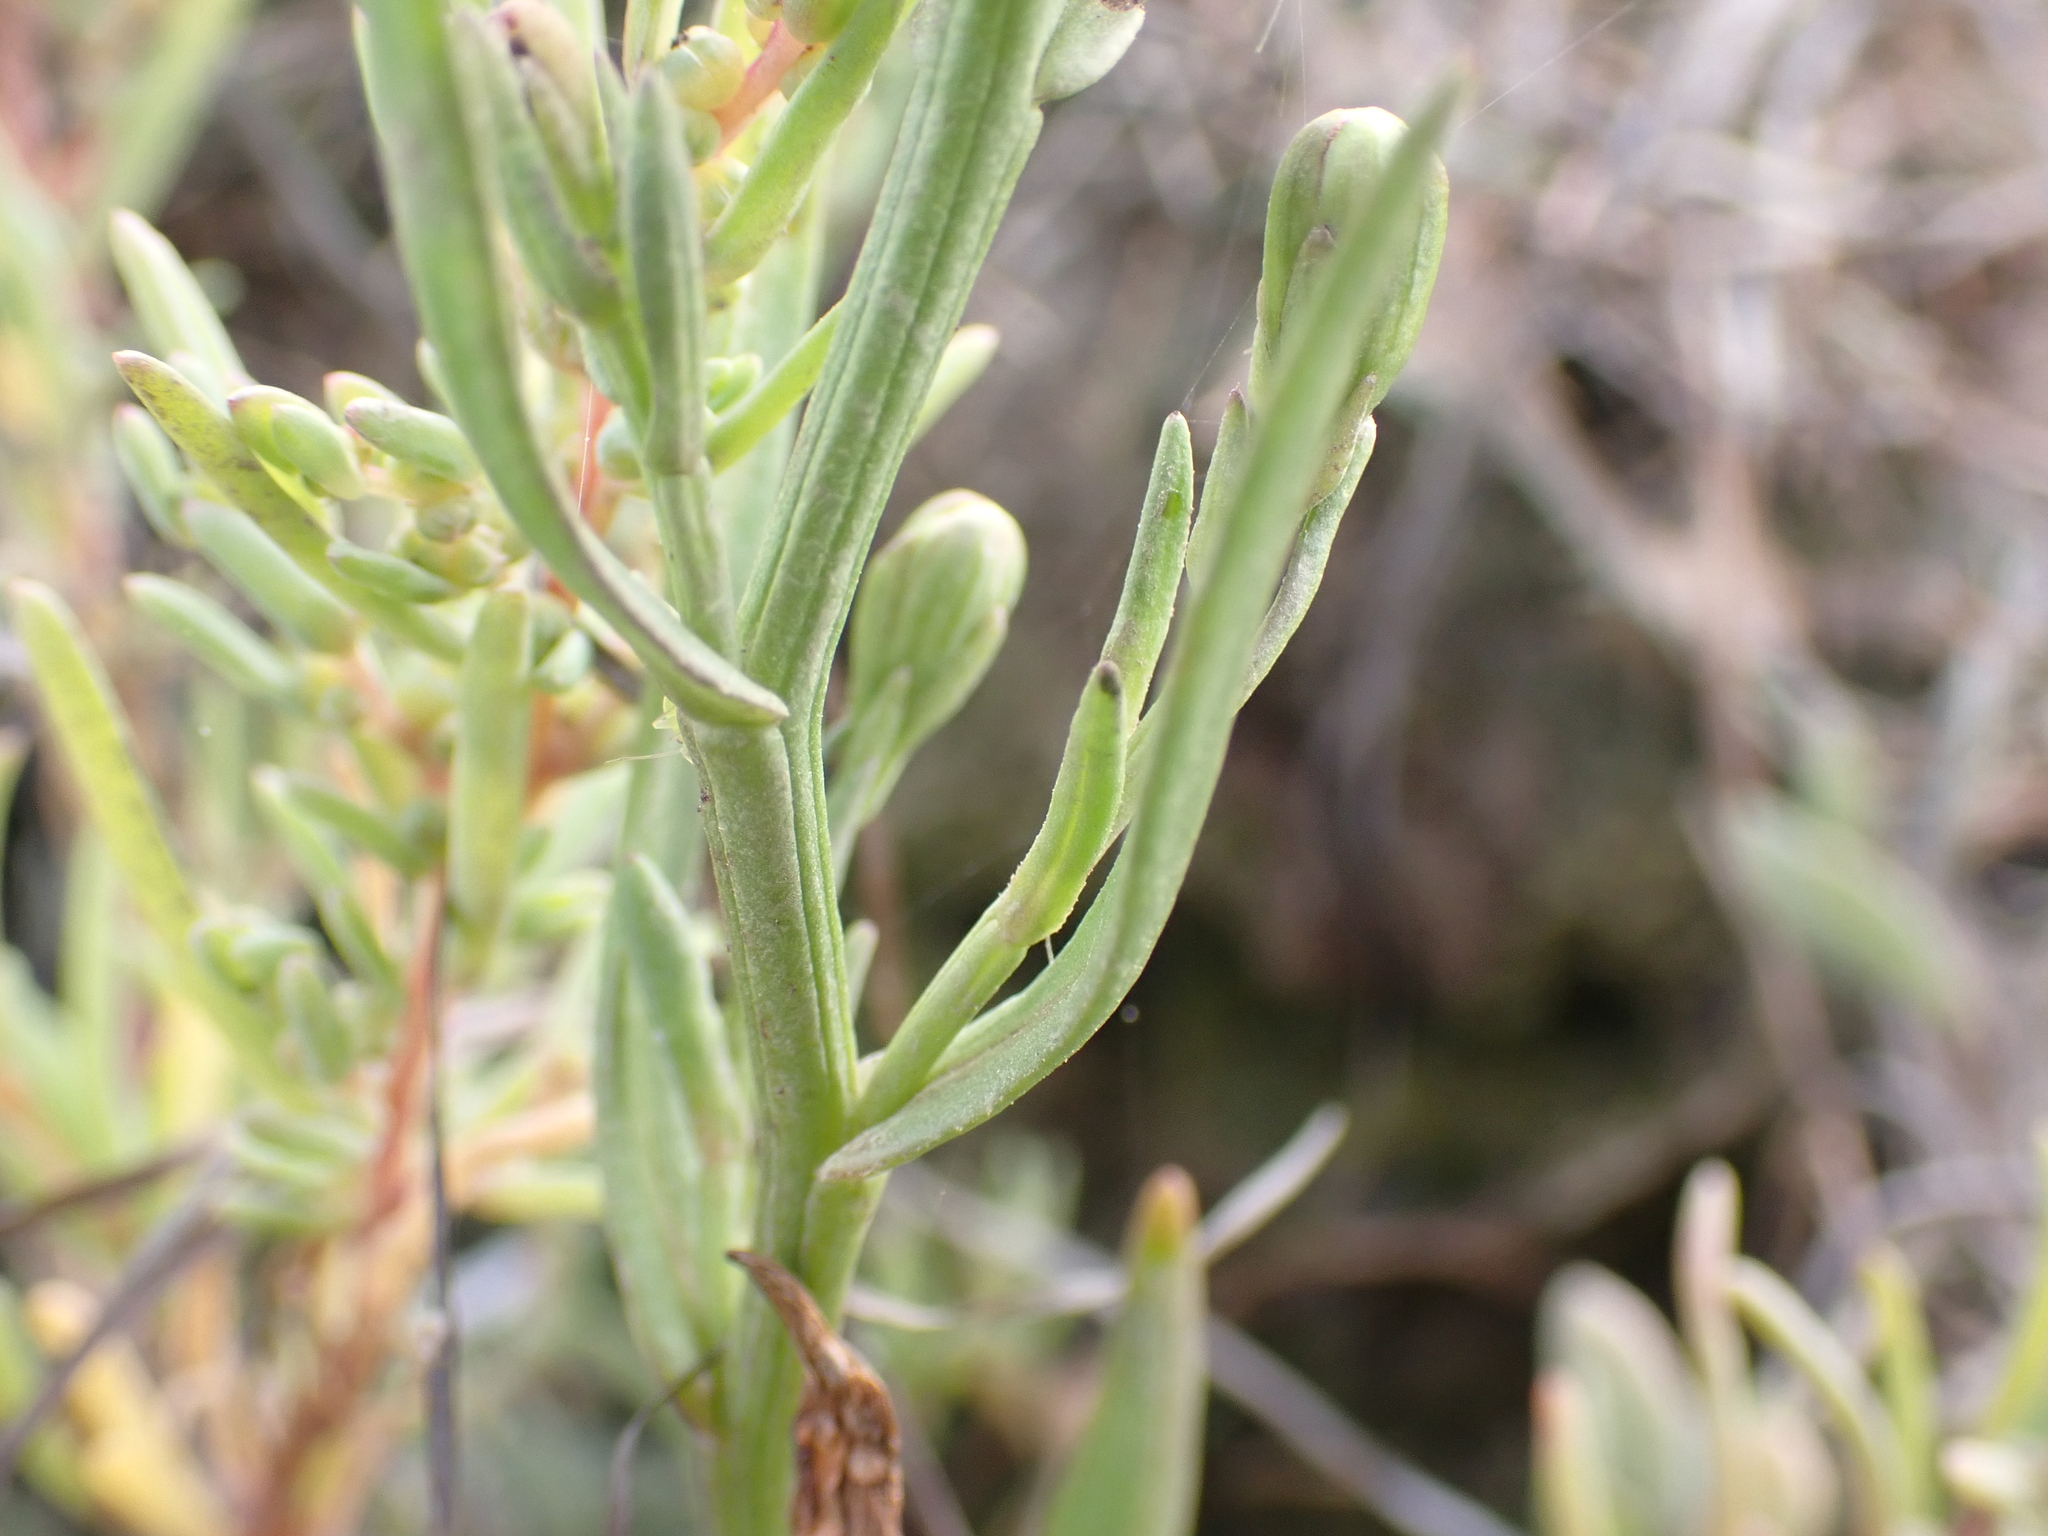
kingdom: Plantae
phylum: Tracheophyta
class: Magnoliopsida
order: Asterales
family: Asteraceae
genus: Tripolium
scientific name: Tripolium pannonicum
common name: Sea aster
